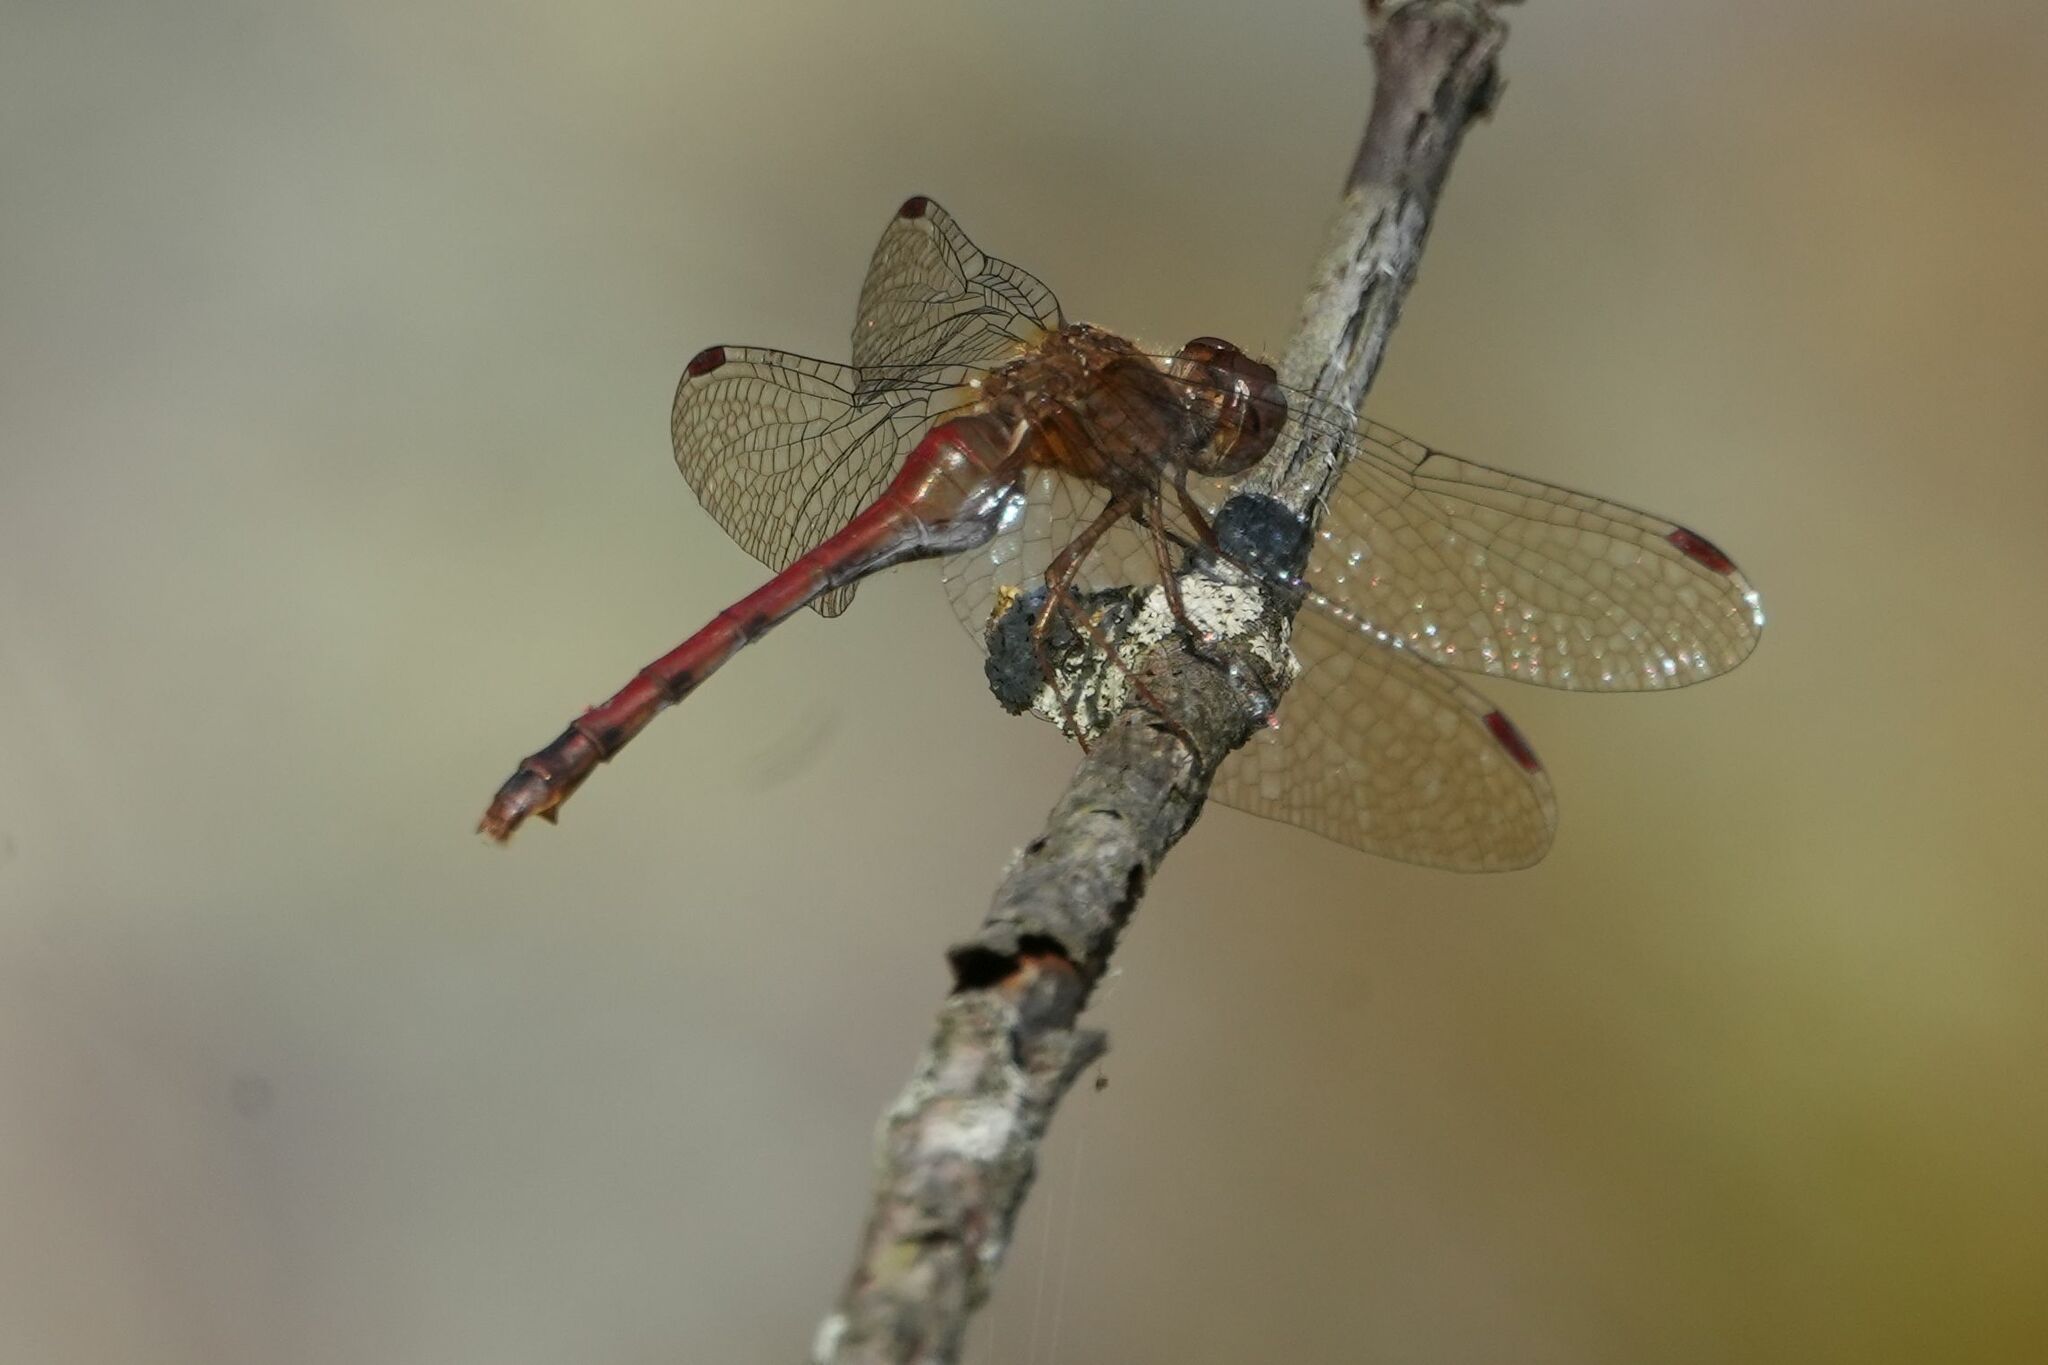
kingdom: Animalia
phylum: Arthropoda
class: Insecta
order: Odonata
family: Libellulidae
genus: Sympetrum
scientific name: Sympetrum vicinum
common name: Autumn meadowhawk
